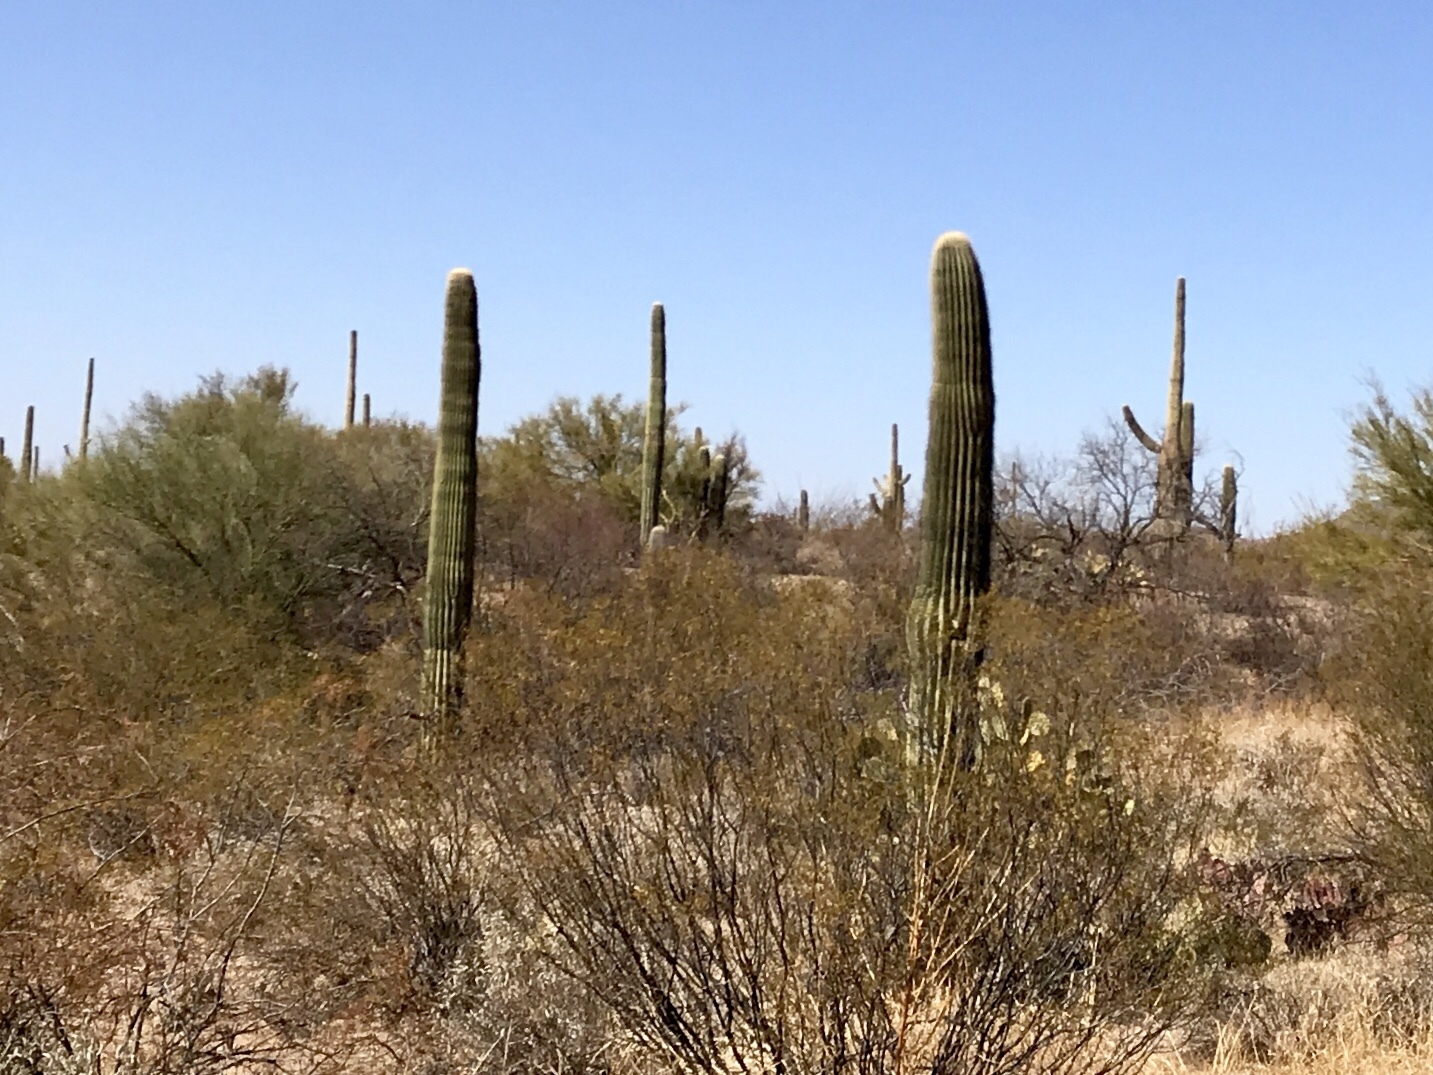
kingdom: Plantae
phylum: Tracheophyta
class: Magnoliopsida
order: Caryophyllales
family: Cactaceae
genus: Carnegiea
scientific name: Carnegiea gigantea
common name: Saguaro
